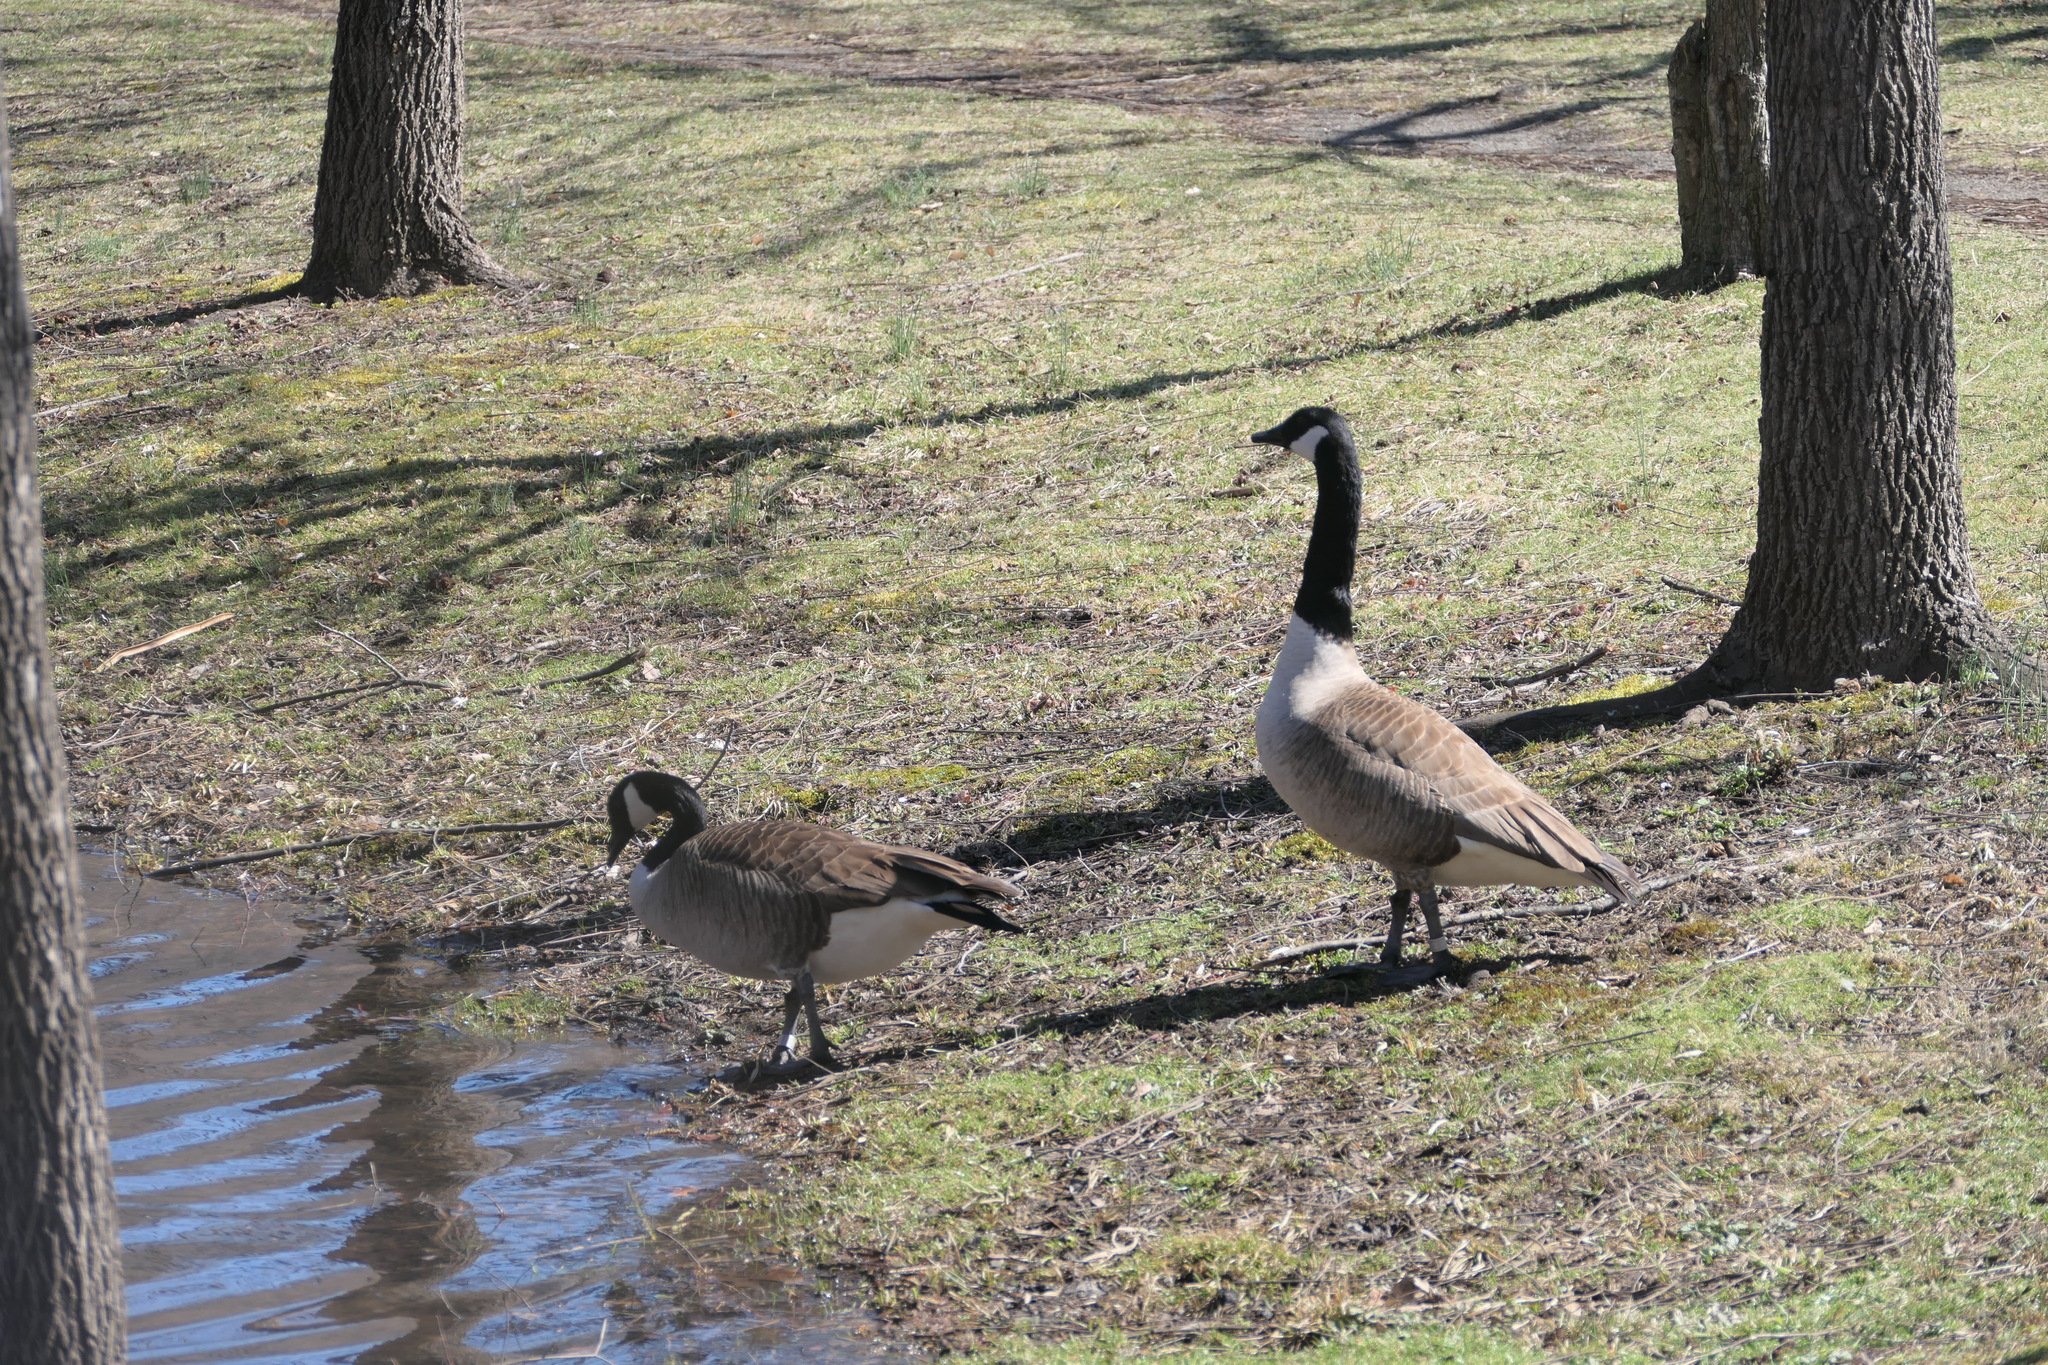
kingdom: Animalia
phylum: Chordata
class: Aves
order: Anseriformes
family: Anatidae
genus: Branta
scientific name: Branta canadensis
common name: Canada goose
